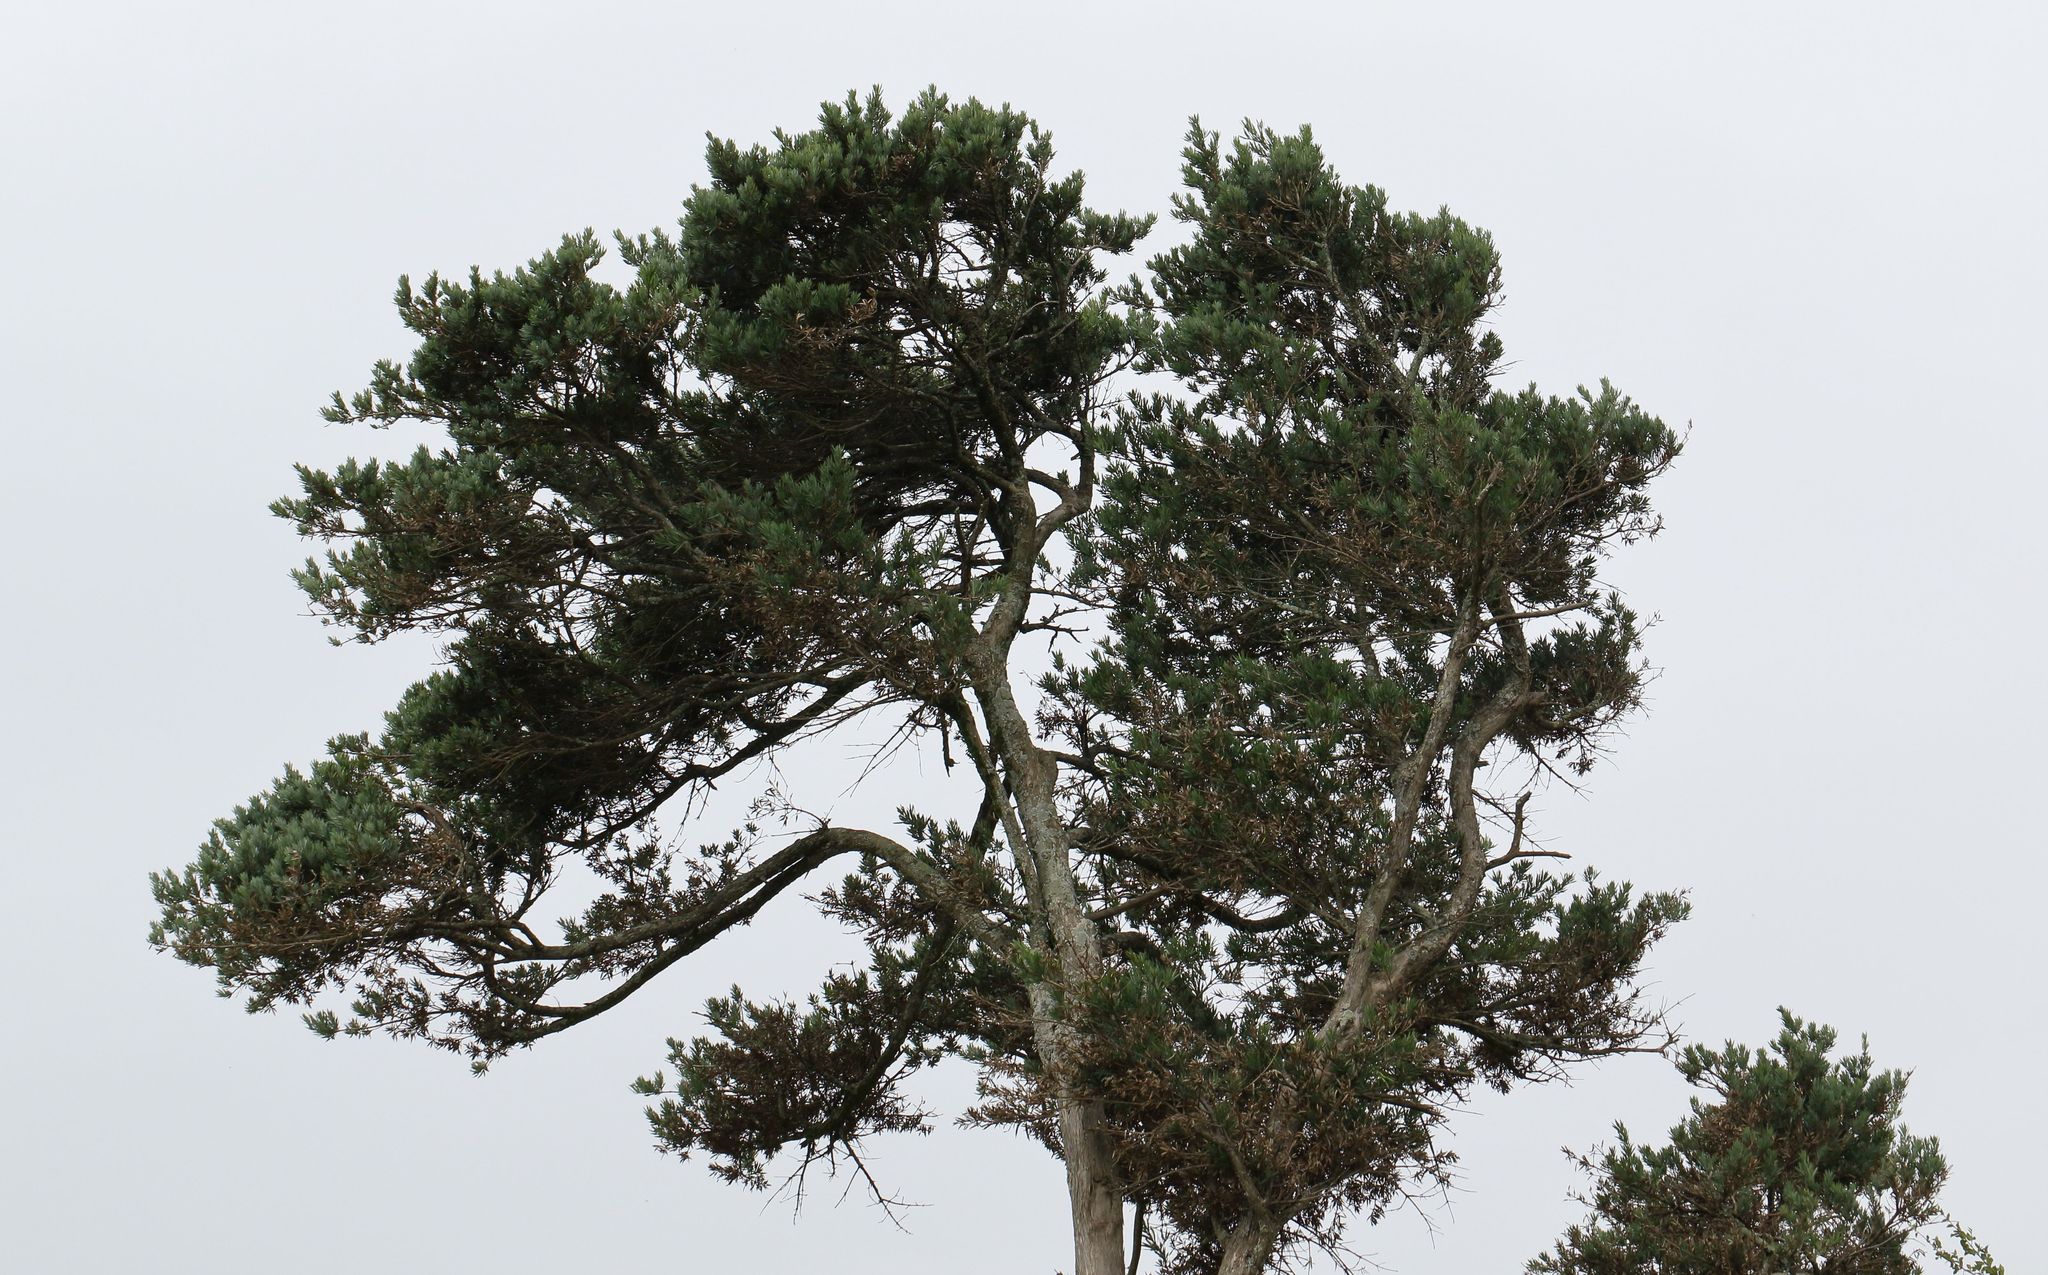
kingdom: Plantae
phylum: Tracheophyta
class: Pinopsida
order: Pinales
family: Podocarpaceae
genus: Podocarpus
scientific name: Podocarpus latifolius
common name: True yellowwood
